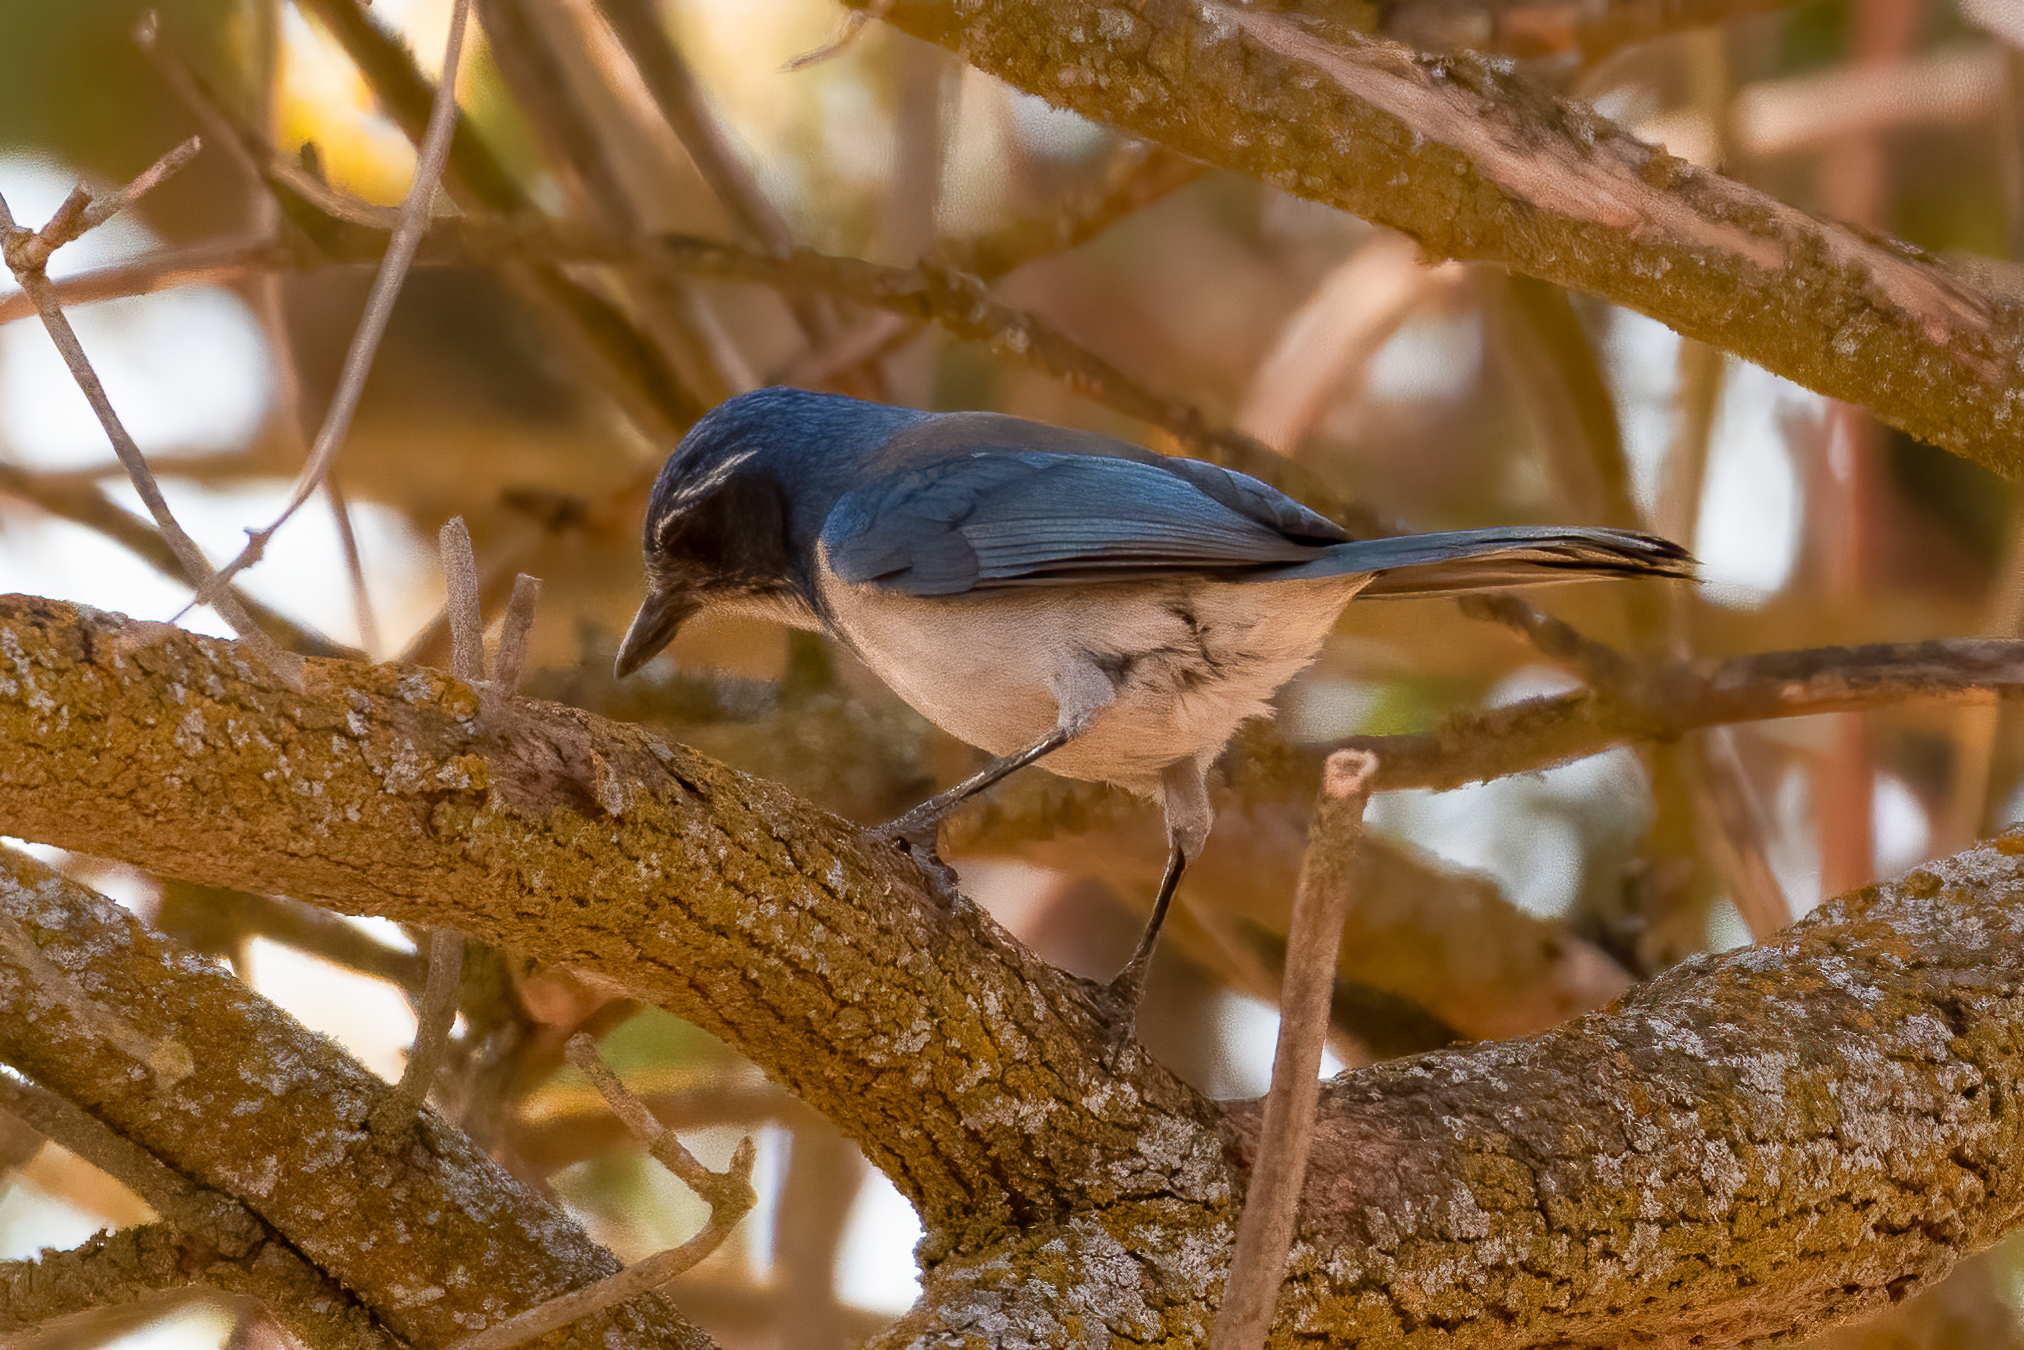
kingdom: Animalia
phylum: Chordata
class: Aves
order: Passeriformes
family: Corvidae
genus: Aphelocoma
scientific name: Aphelocoma californica
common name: California scrub-jay
